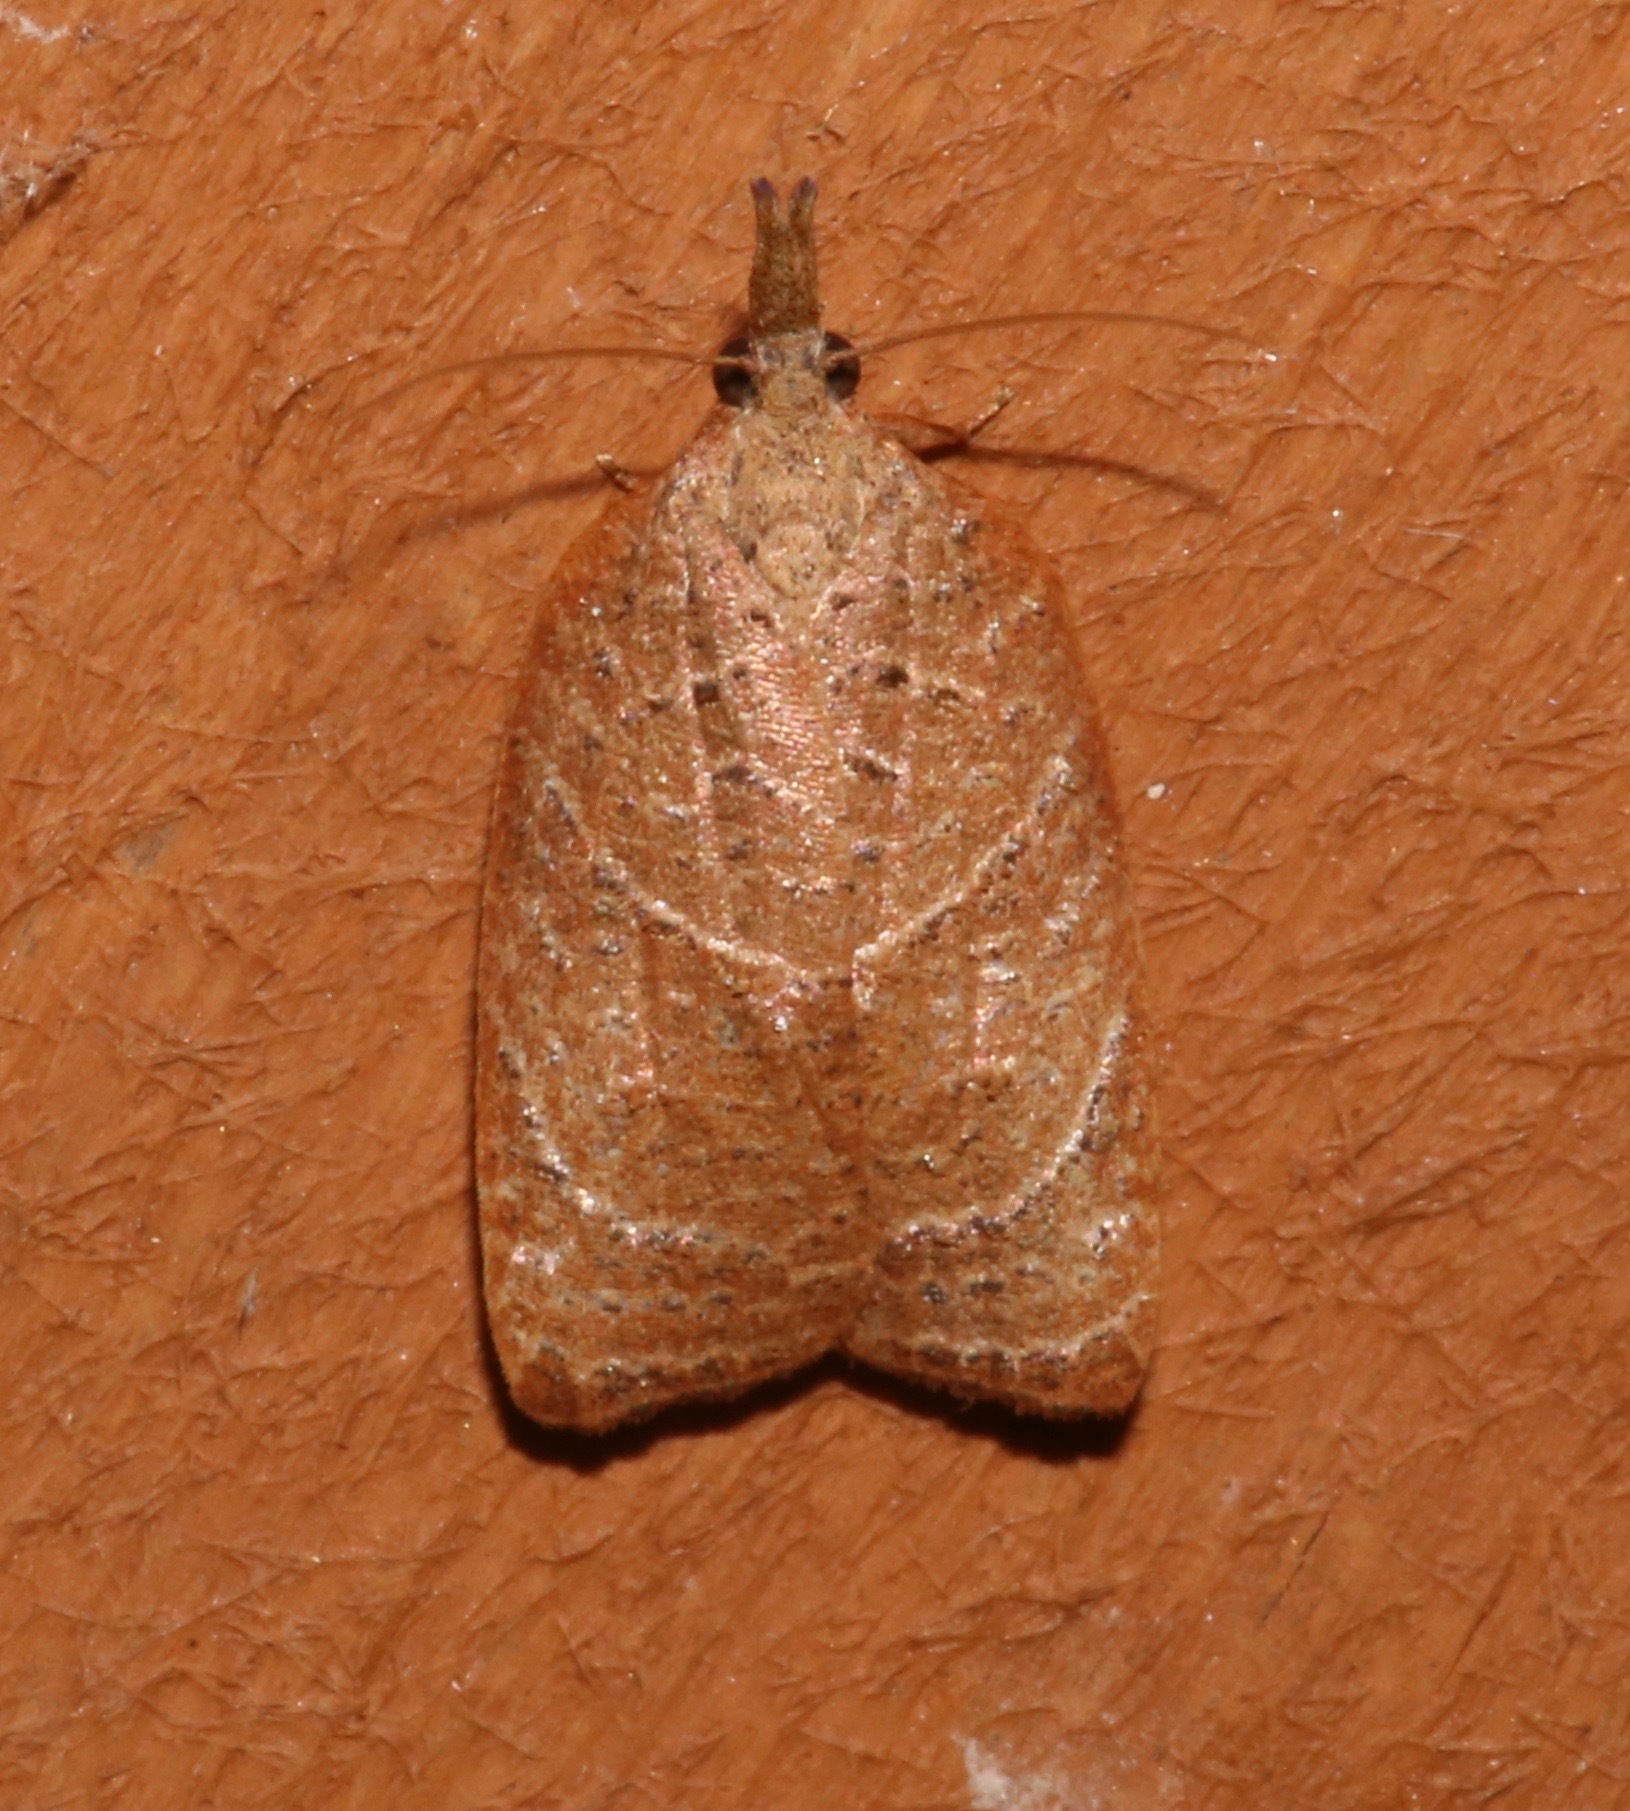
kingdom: Animalia
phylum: Arthropoda
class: Insecta
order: Lepidoptera
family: Tortricidae
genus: Platynota
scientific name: Platynota rostrana
